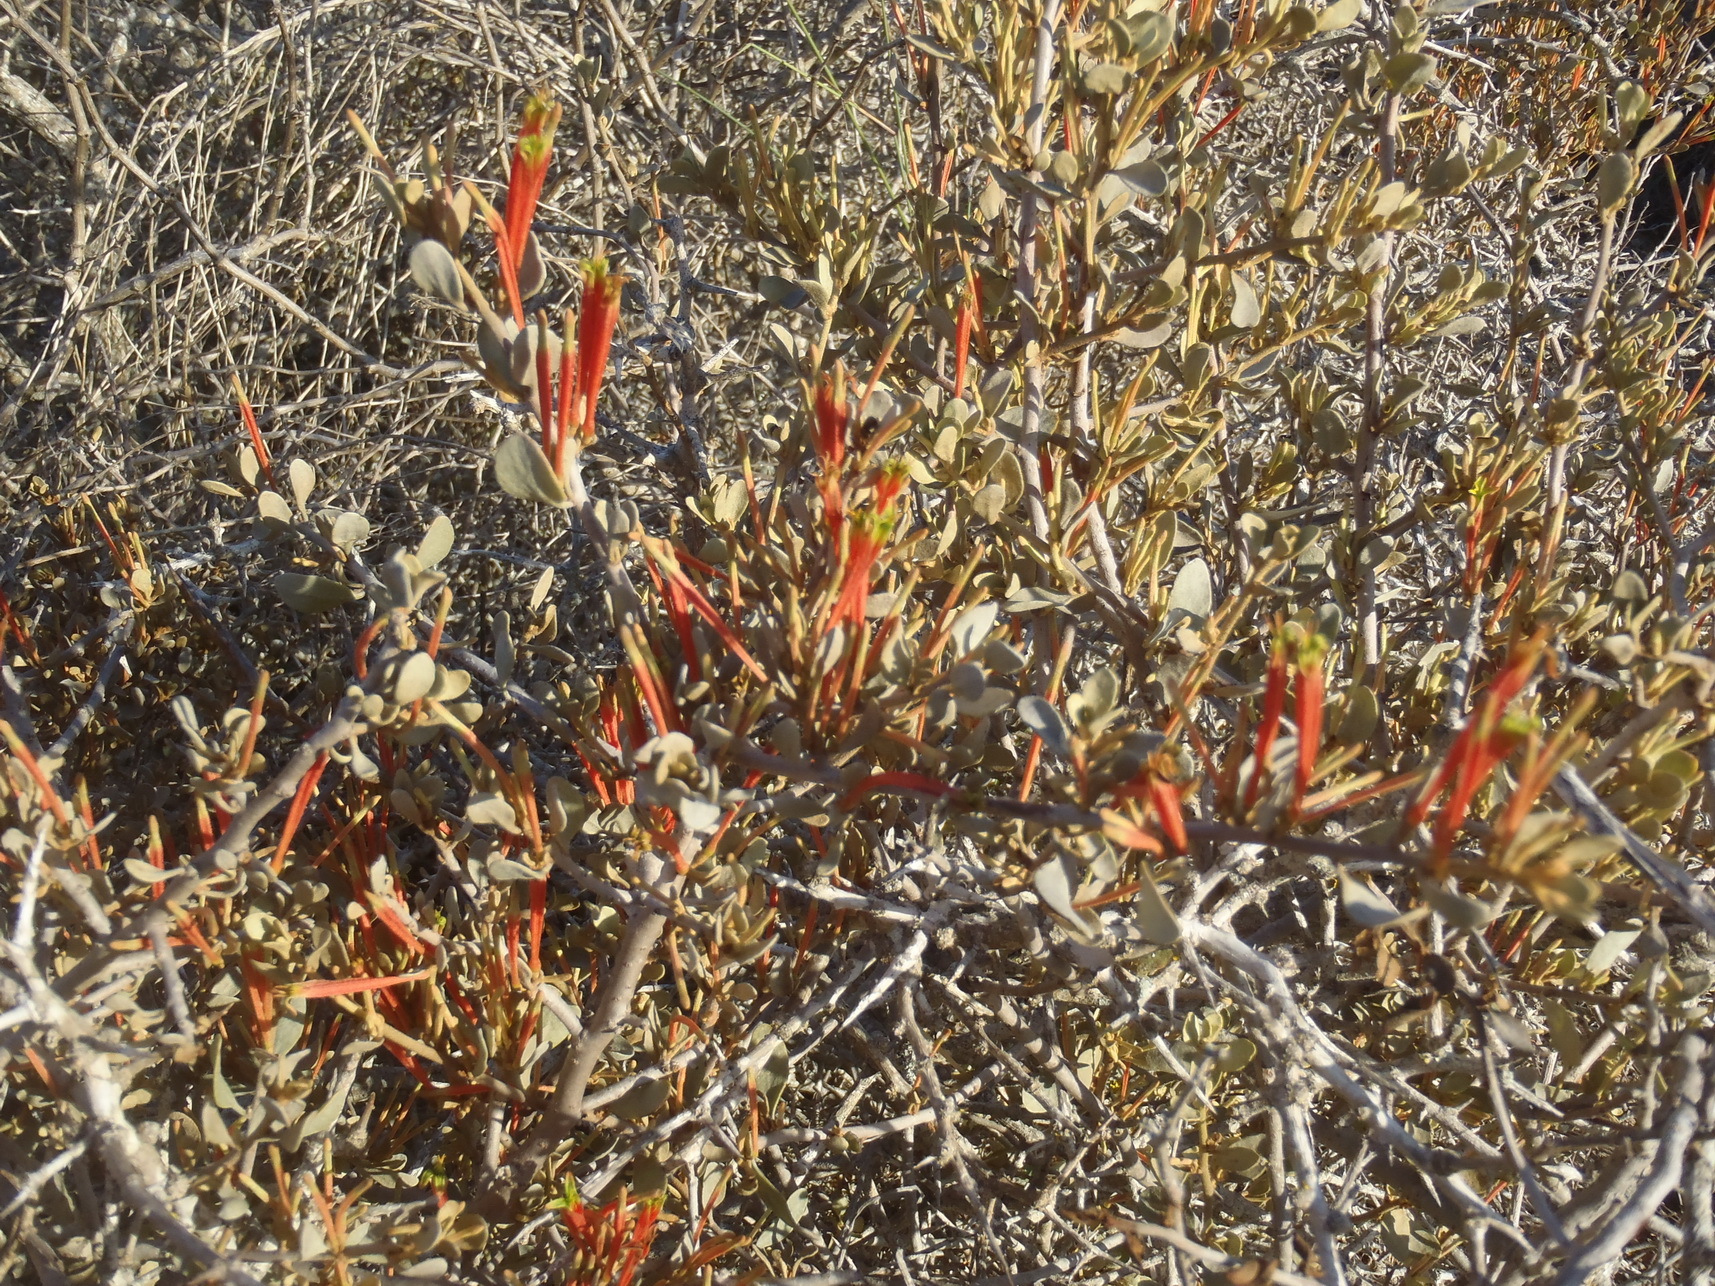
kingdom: Plantae
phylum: Tracheophyta
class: Magnoliopsida
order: Santalales
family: Loranthaceae
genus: Septulina
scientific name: Septulina glauca
